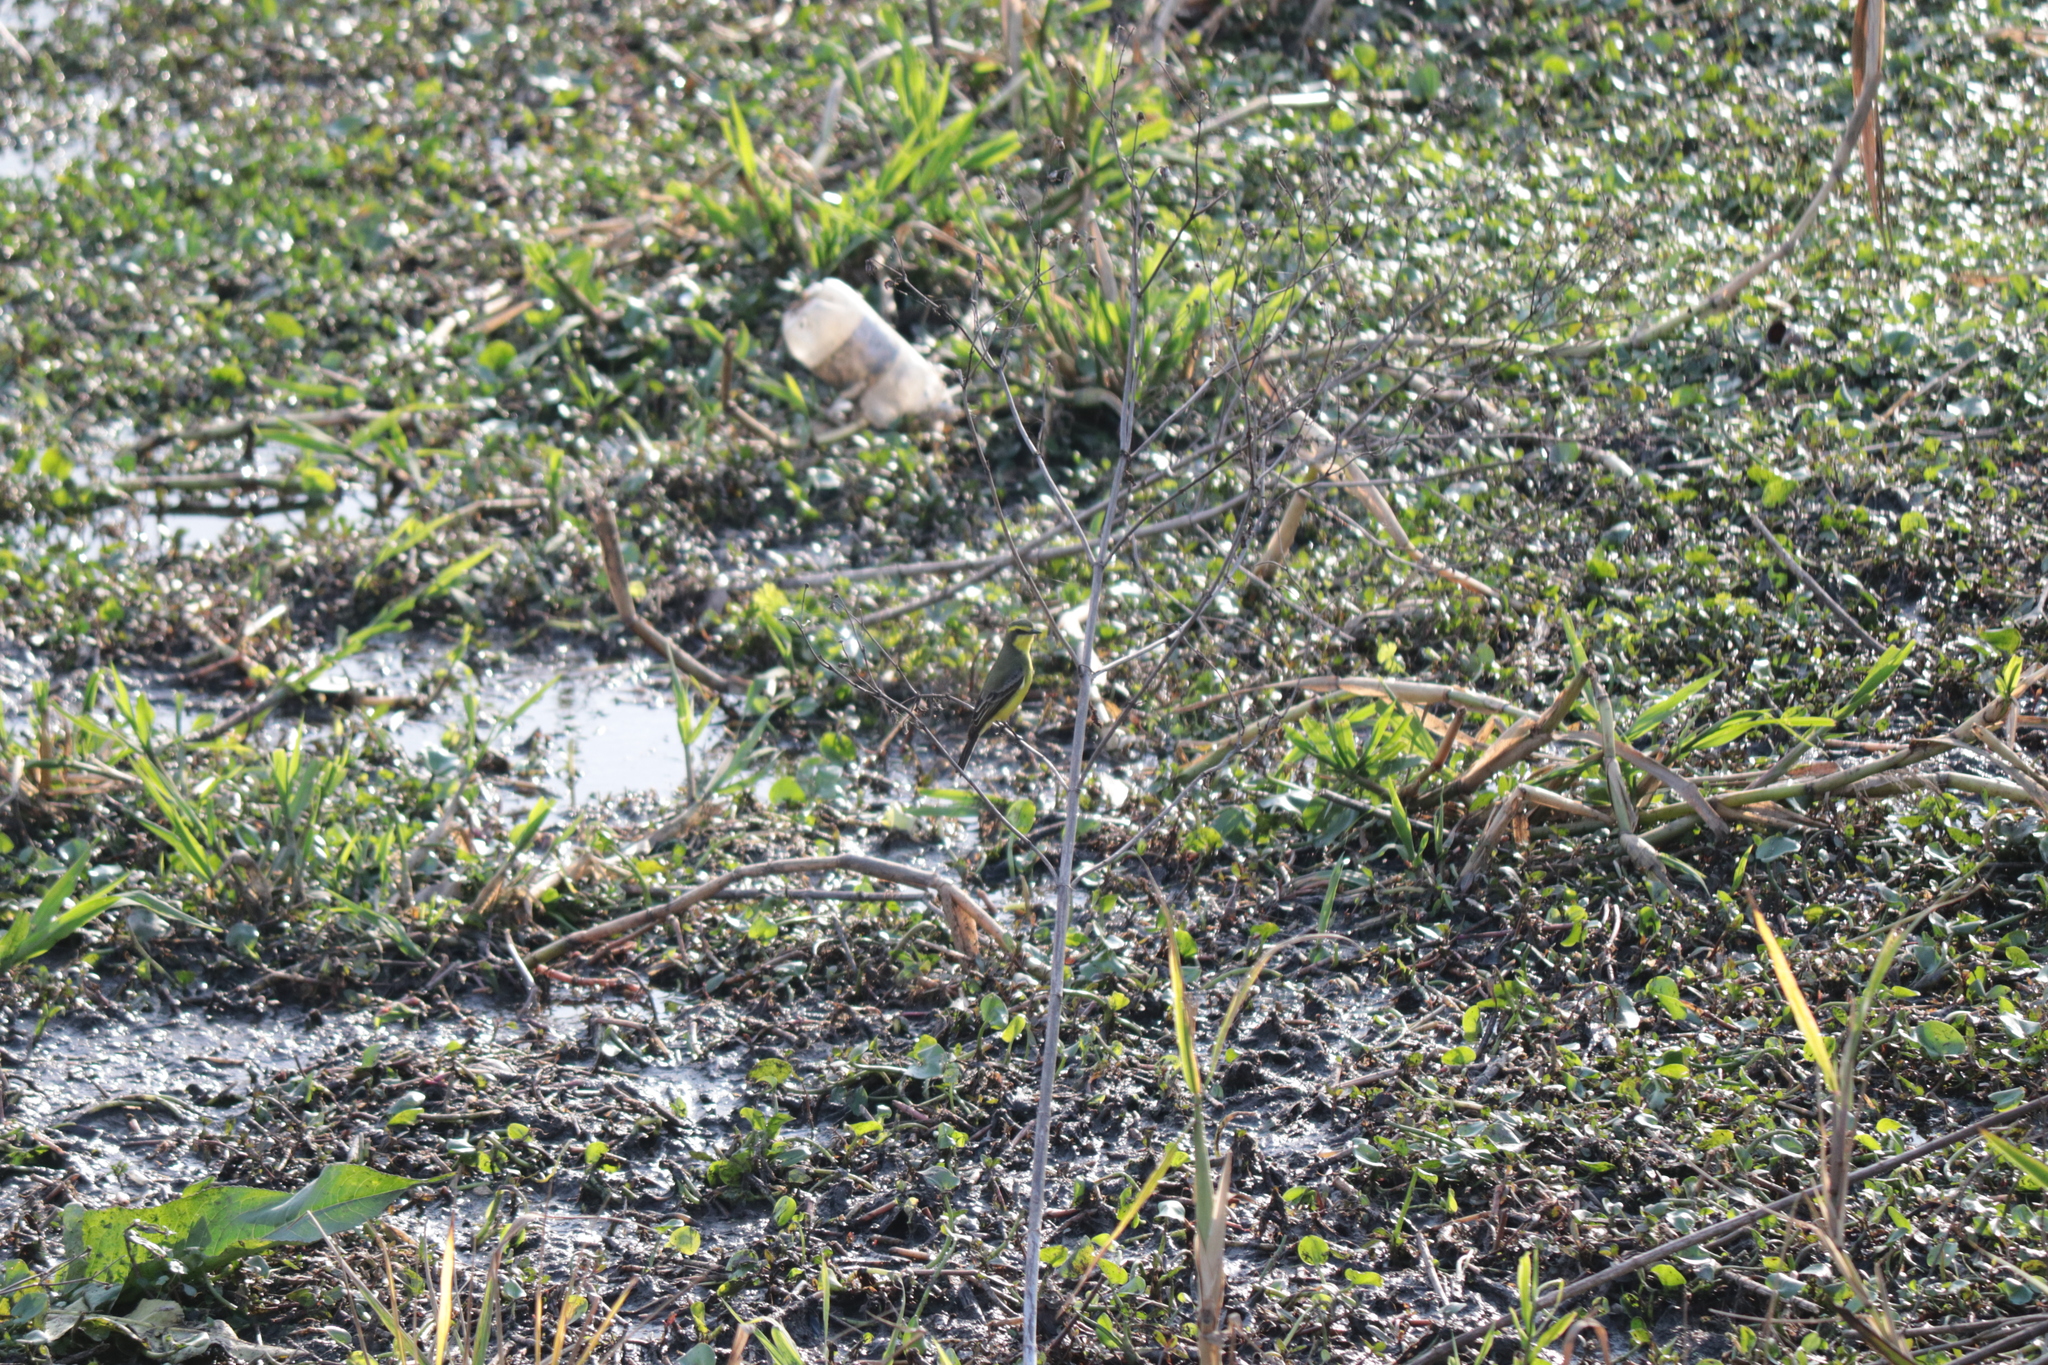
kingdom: Animalia
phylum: Chordata
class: Aves
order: Passeriformes
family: Tyrannidae
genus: Satrapa
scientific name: Satrapa icterophrys
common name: Yellow-browed tyrant
